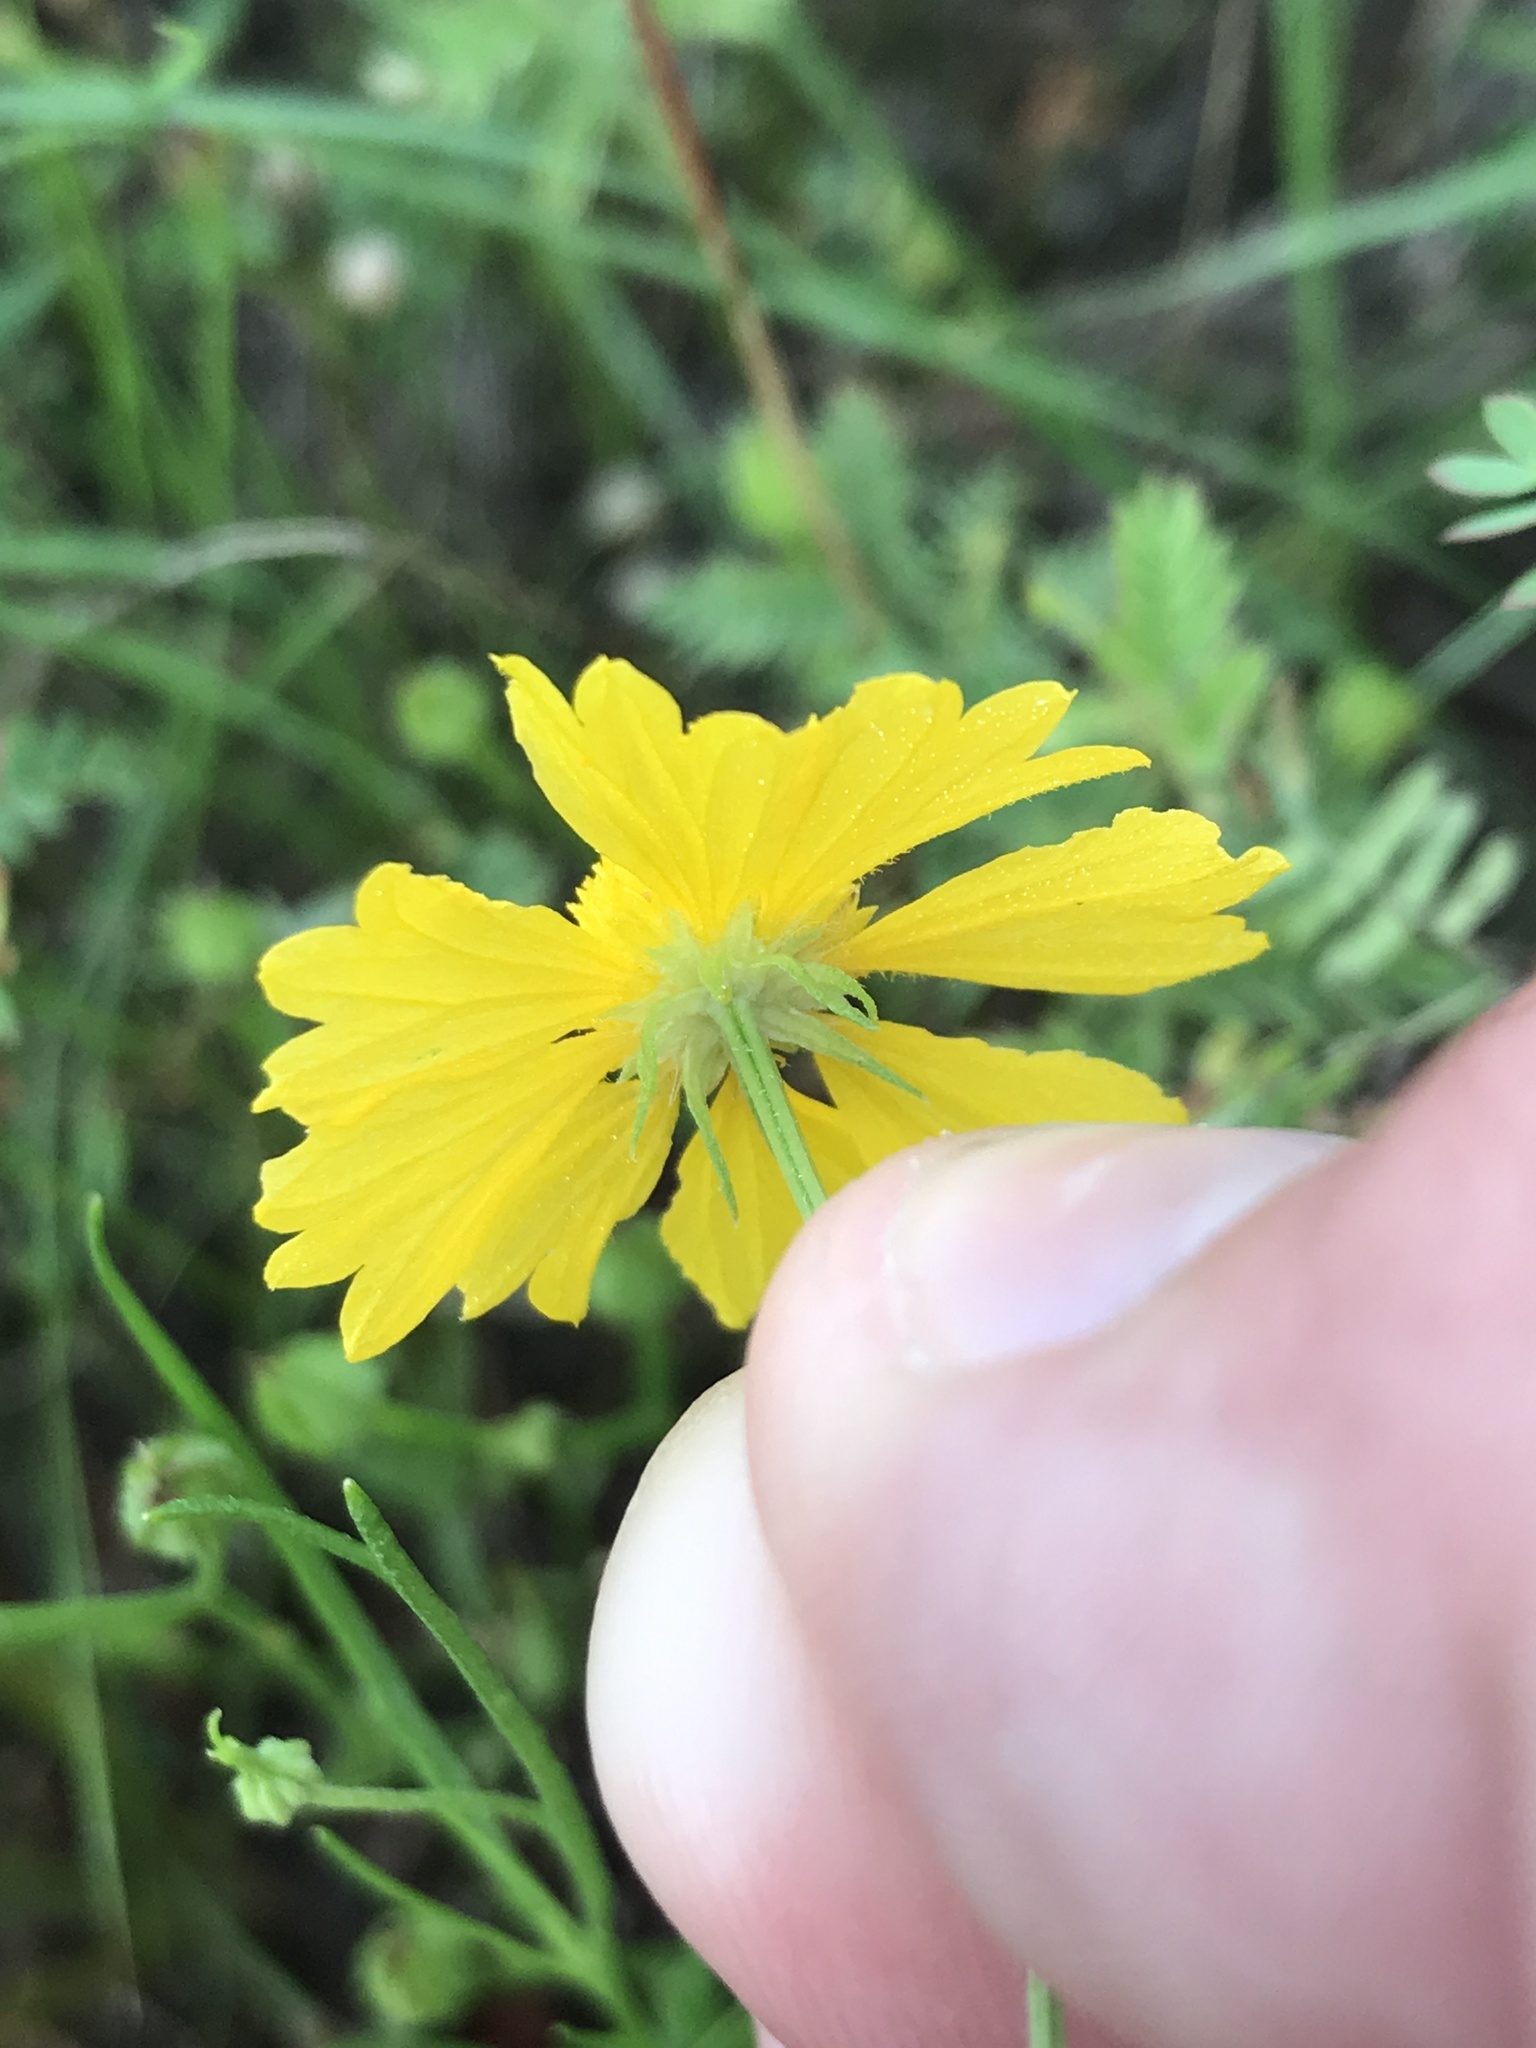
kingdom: Plantae
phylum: Tracheophyta
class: Magnoliopsida
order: Asterales
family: Asteraceae
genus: Helenium
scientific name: Helenium amarum
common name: Bitter sneezeweed
